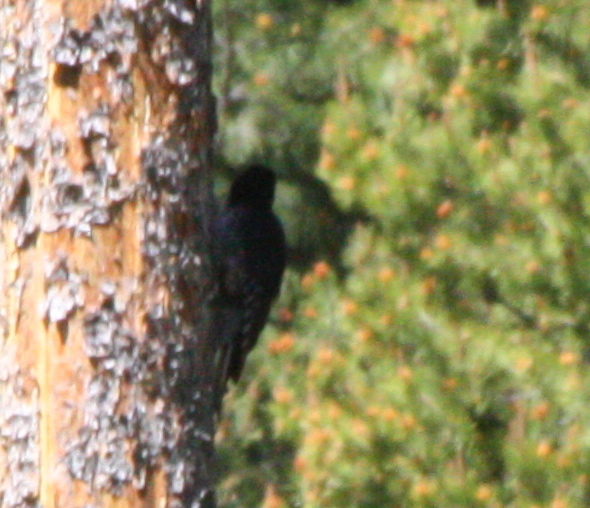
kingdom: Animalia
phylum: Chordata
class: Aves
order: Piciformes
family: Picidae
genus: Picoides
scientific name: Picoides arcticus
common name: Black-backed woodpecker
